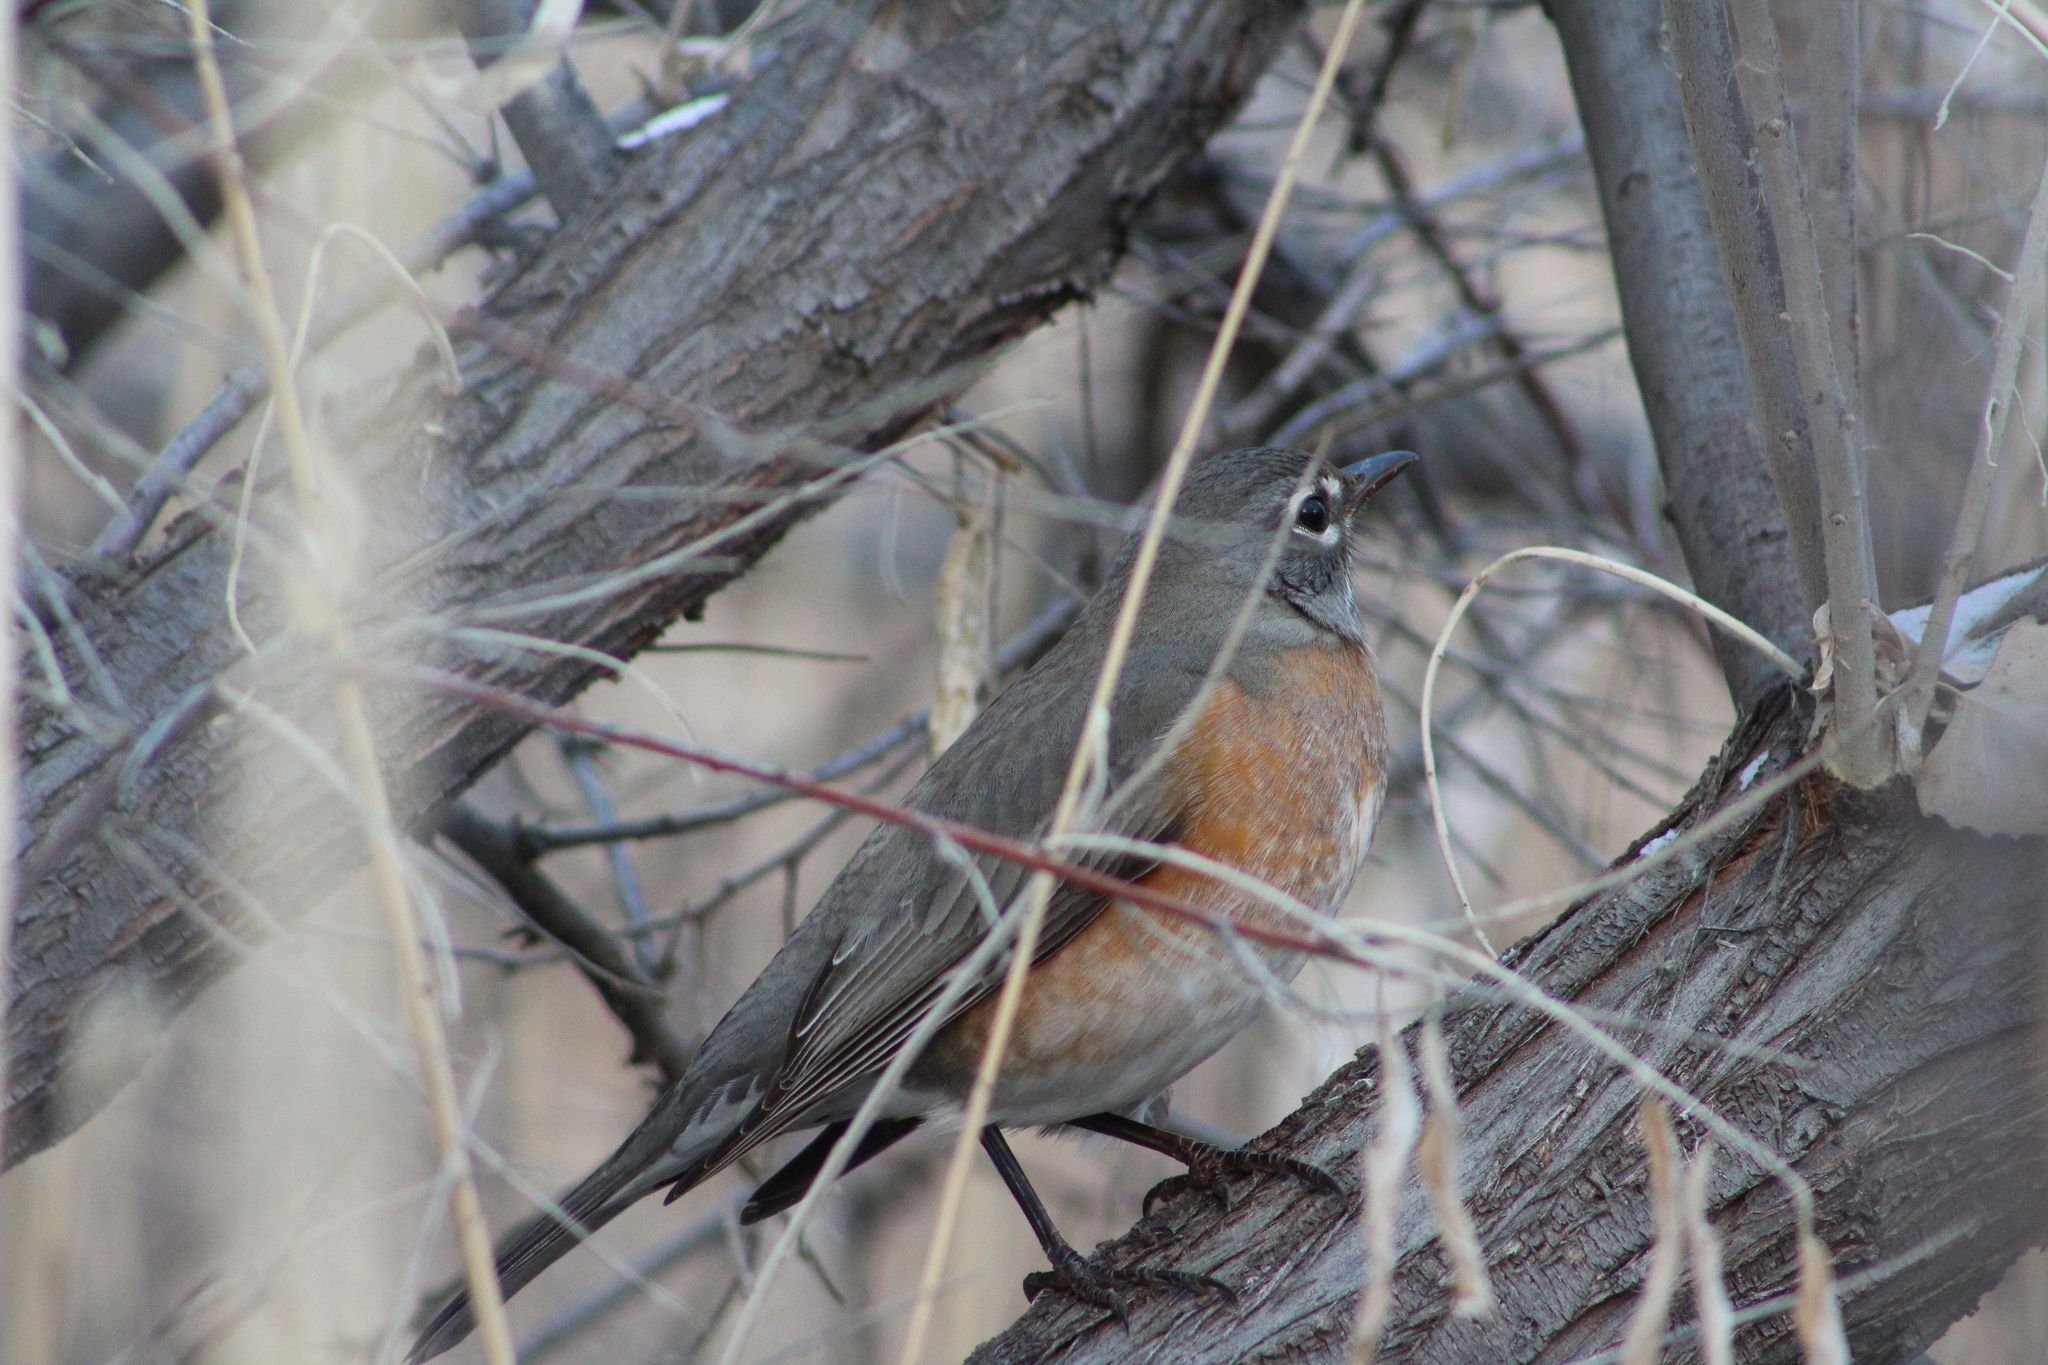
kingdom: Animalia
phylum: Chordata
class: Aves
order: Passeriformes
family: Turdidae
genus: Turdus
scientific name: Turdus migratorius
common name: American robin
